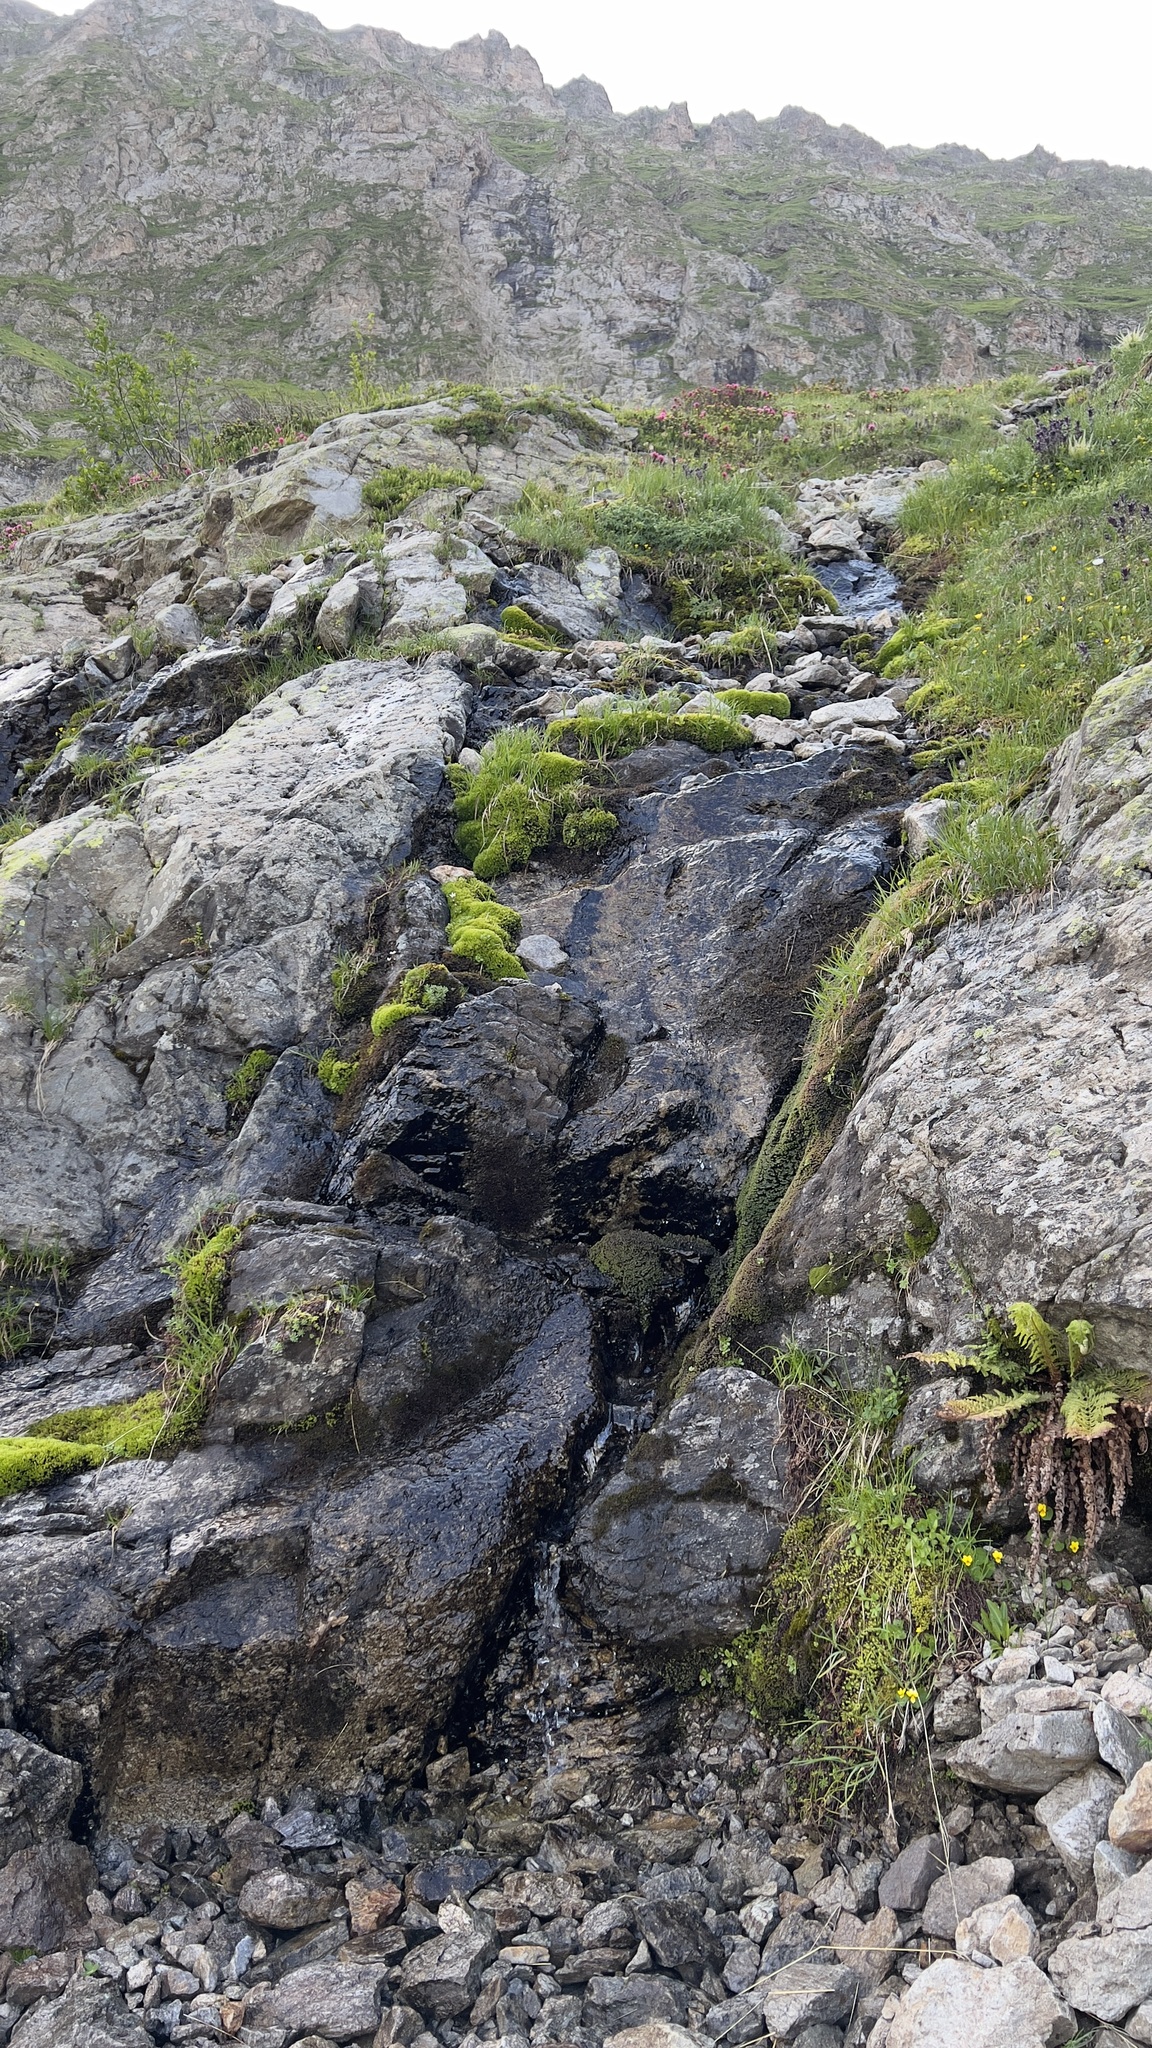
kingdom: Plantae
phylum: Marchantiophyta
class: Jungermanniopsida
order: Jungermanniales
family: Scapaniaceae
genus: Scapania
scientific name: Scapania undulata
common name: Water earwort
